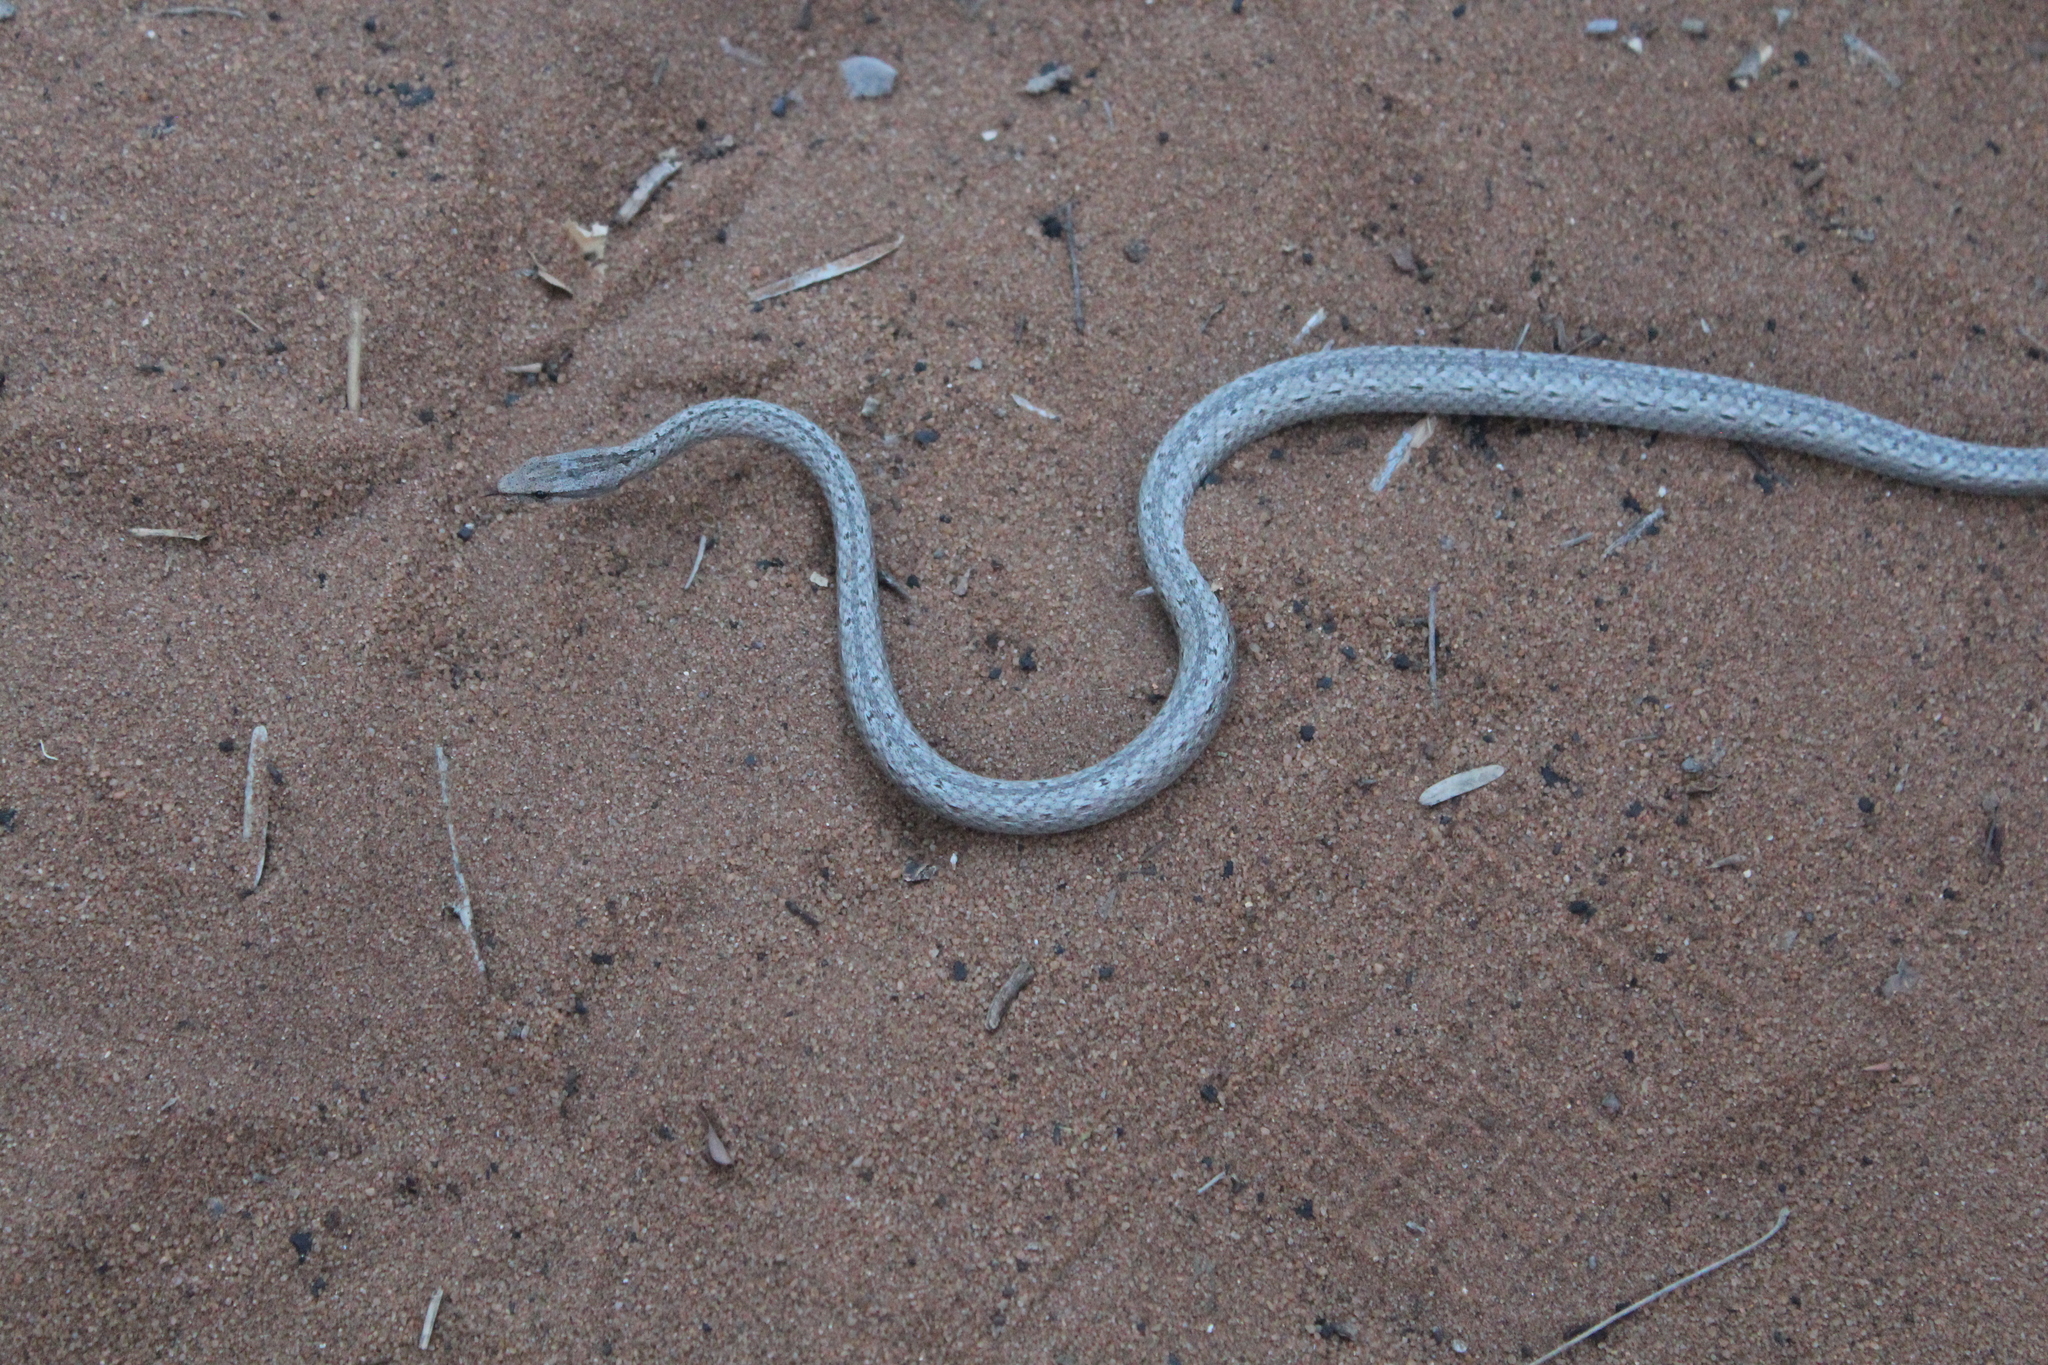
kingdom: Animalia
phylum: Chordata
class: Squamata
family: Psammophiidae
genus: Mimophis
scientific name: Mimophis mahfalensis
